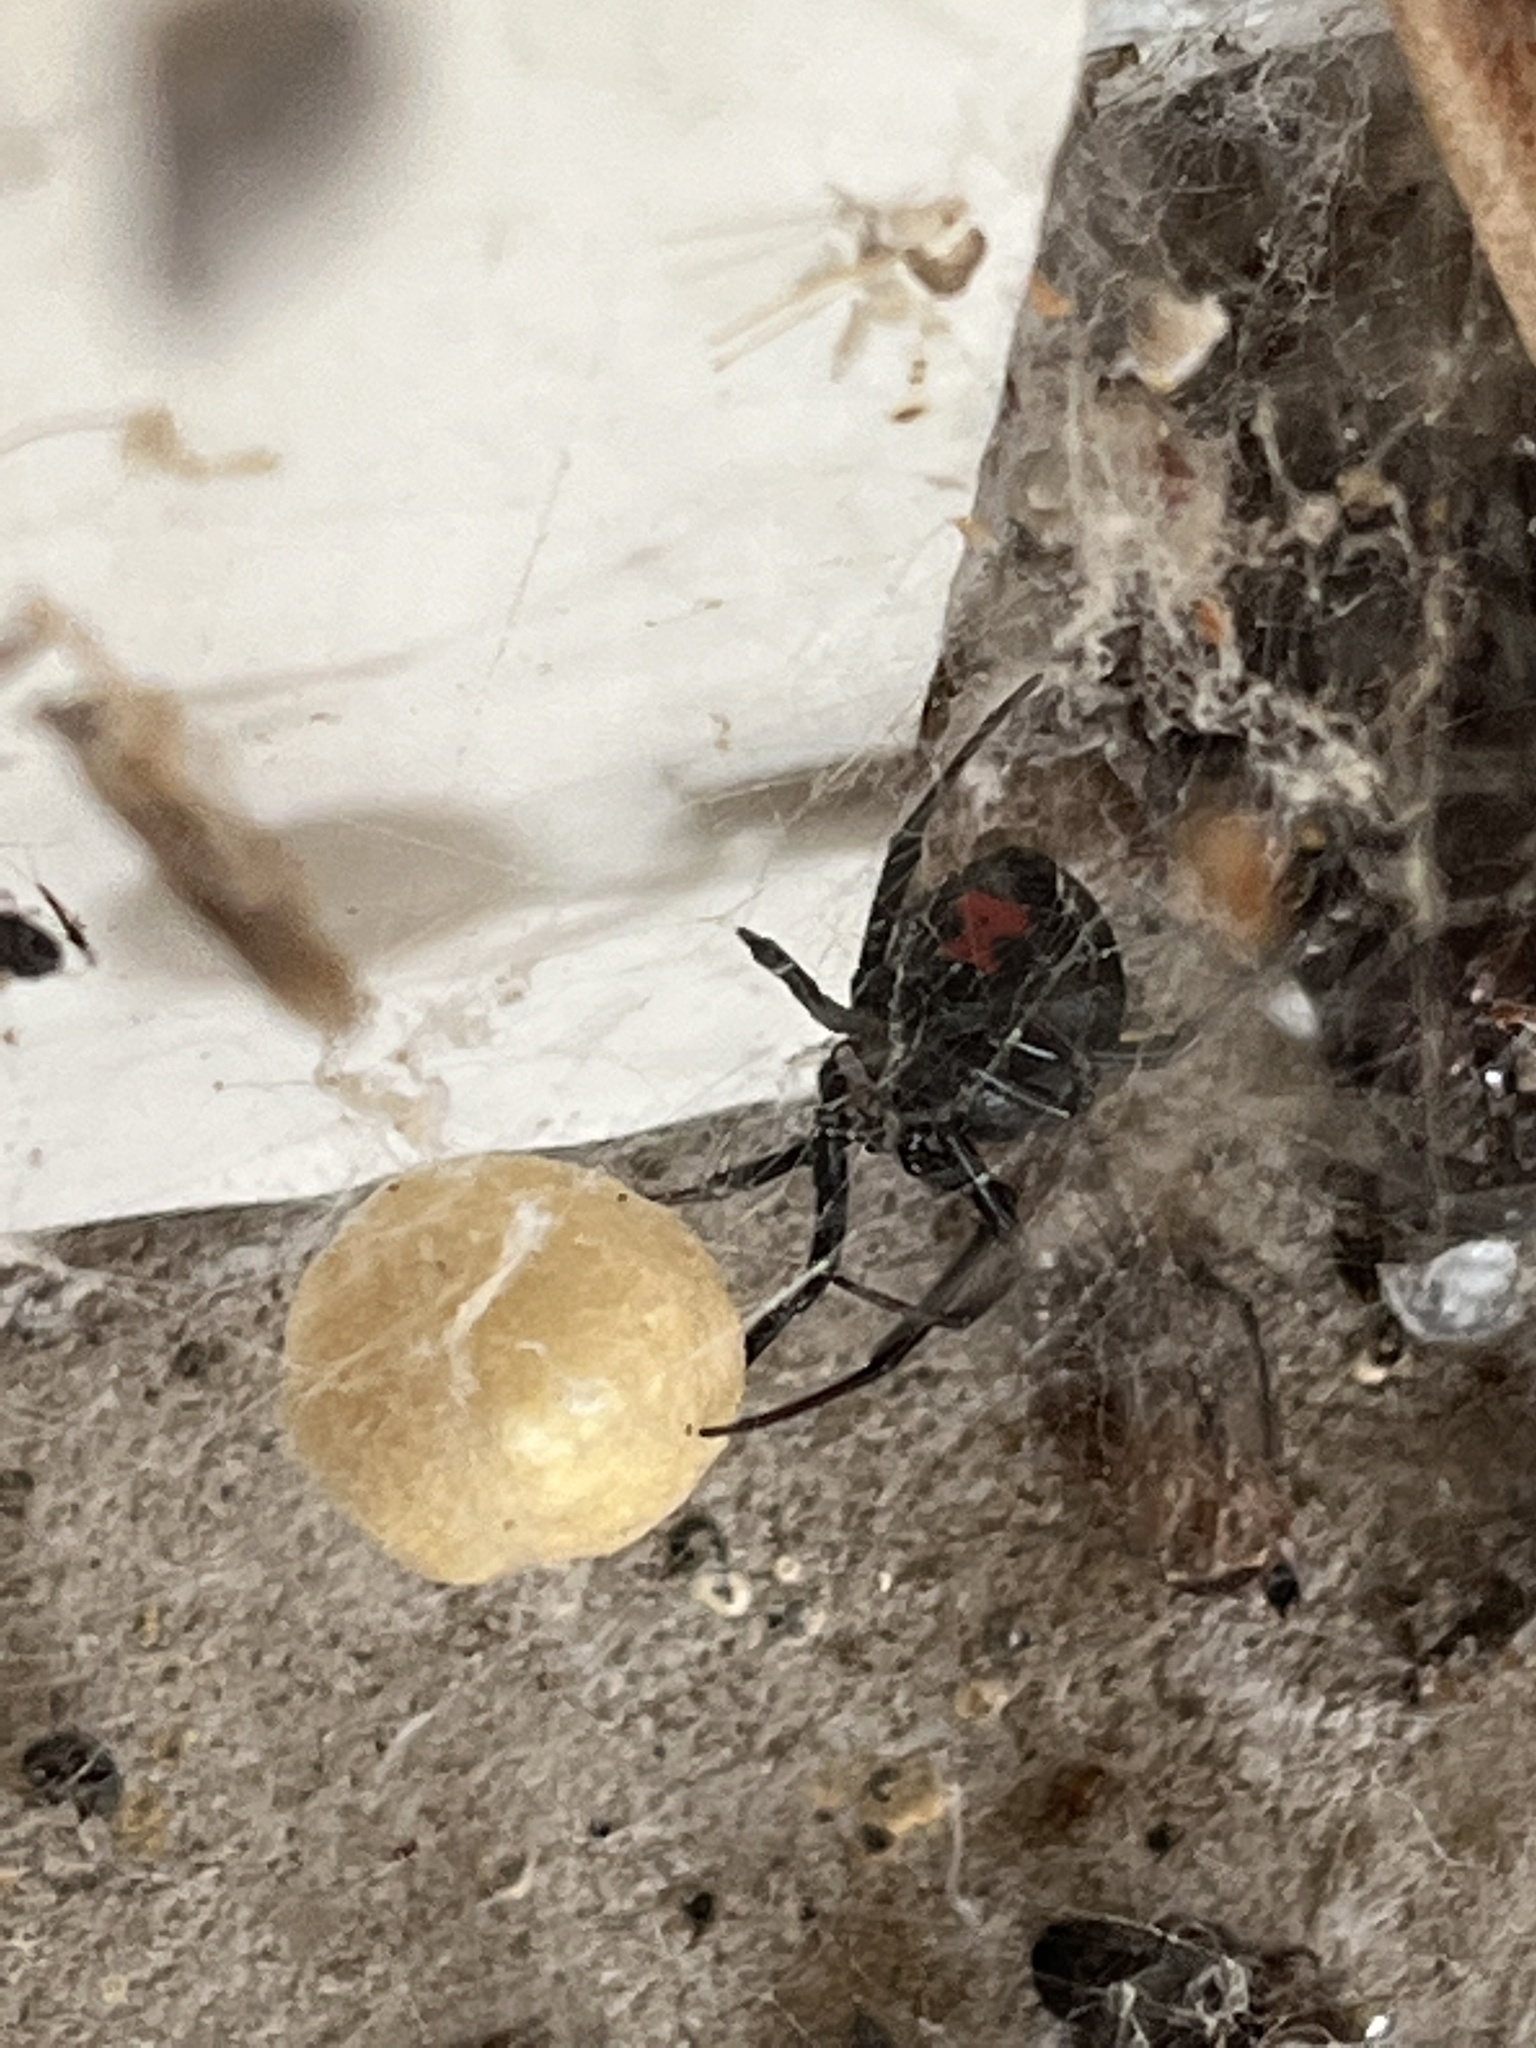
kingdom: Animalia
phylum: Arthropoda
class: Arachnida
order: Araneae
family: Theridiidae
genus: Latrodectus
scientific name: Latrodectus mactans
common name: Cobweb spiders
